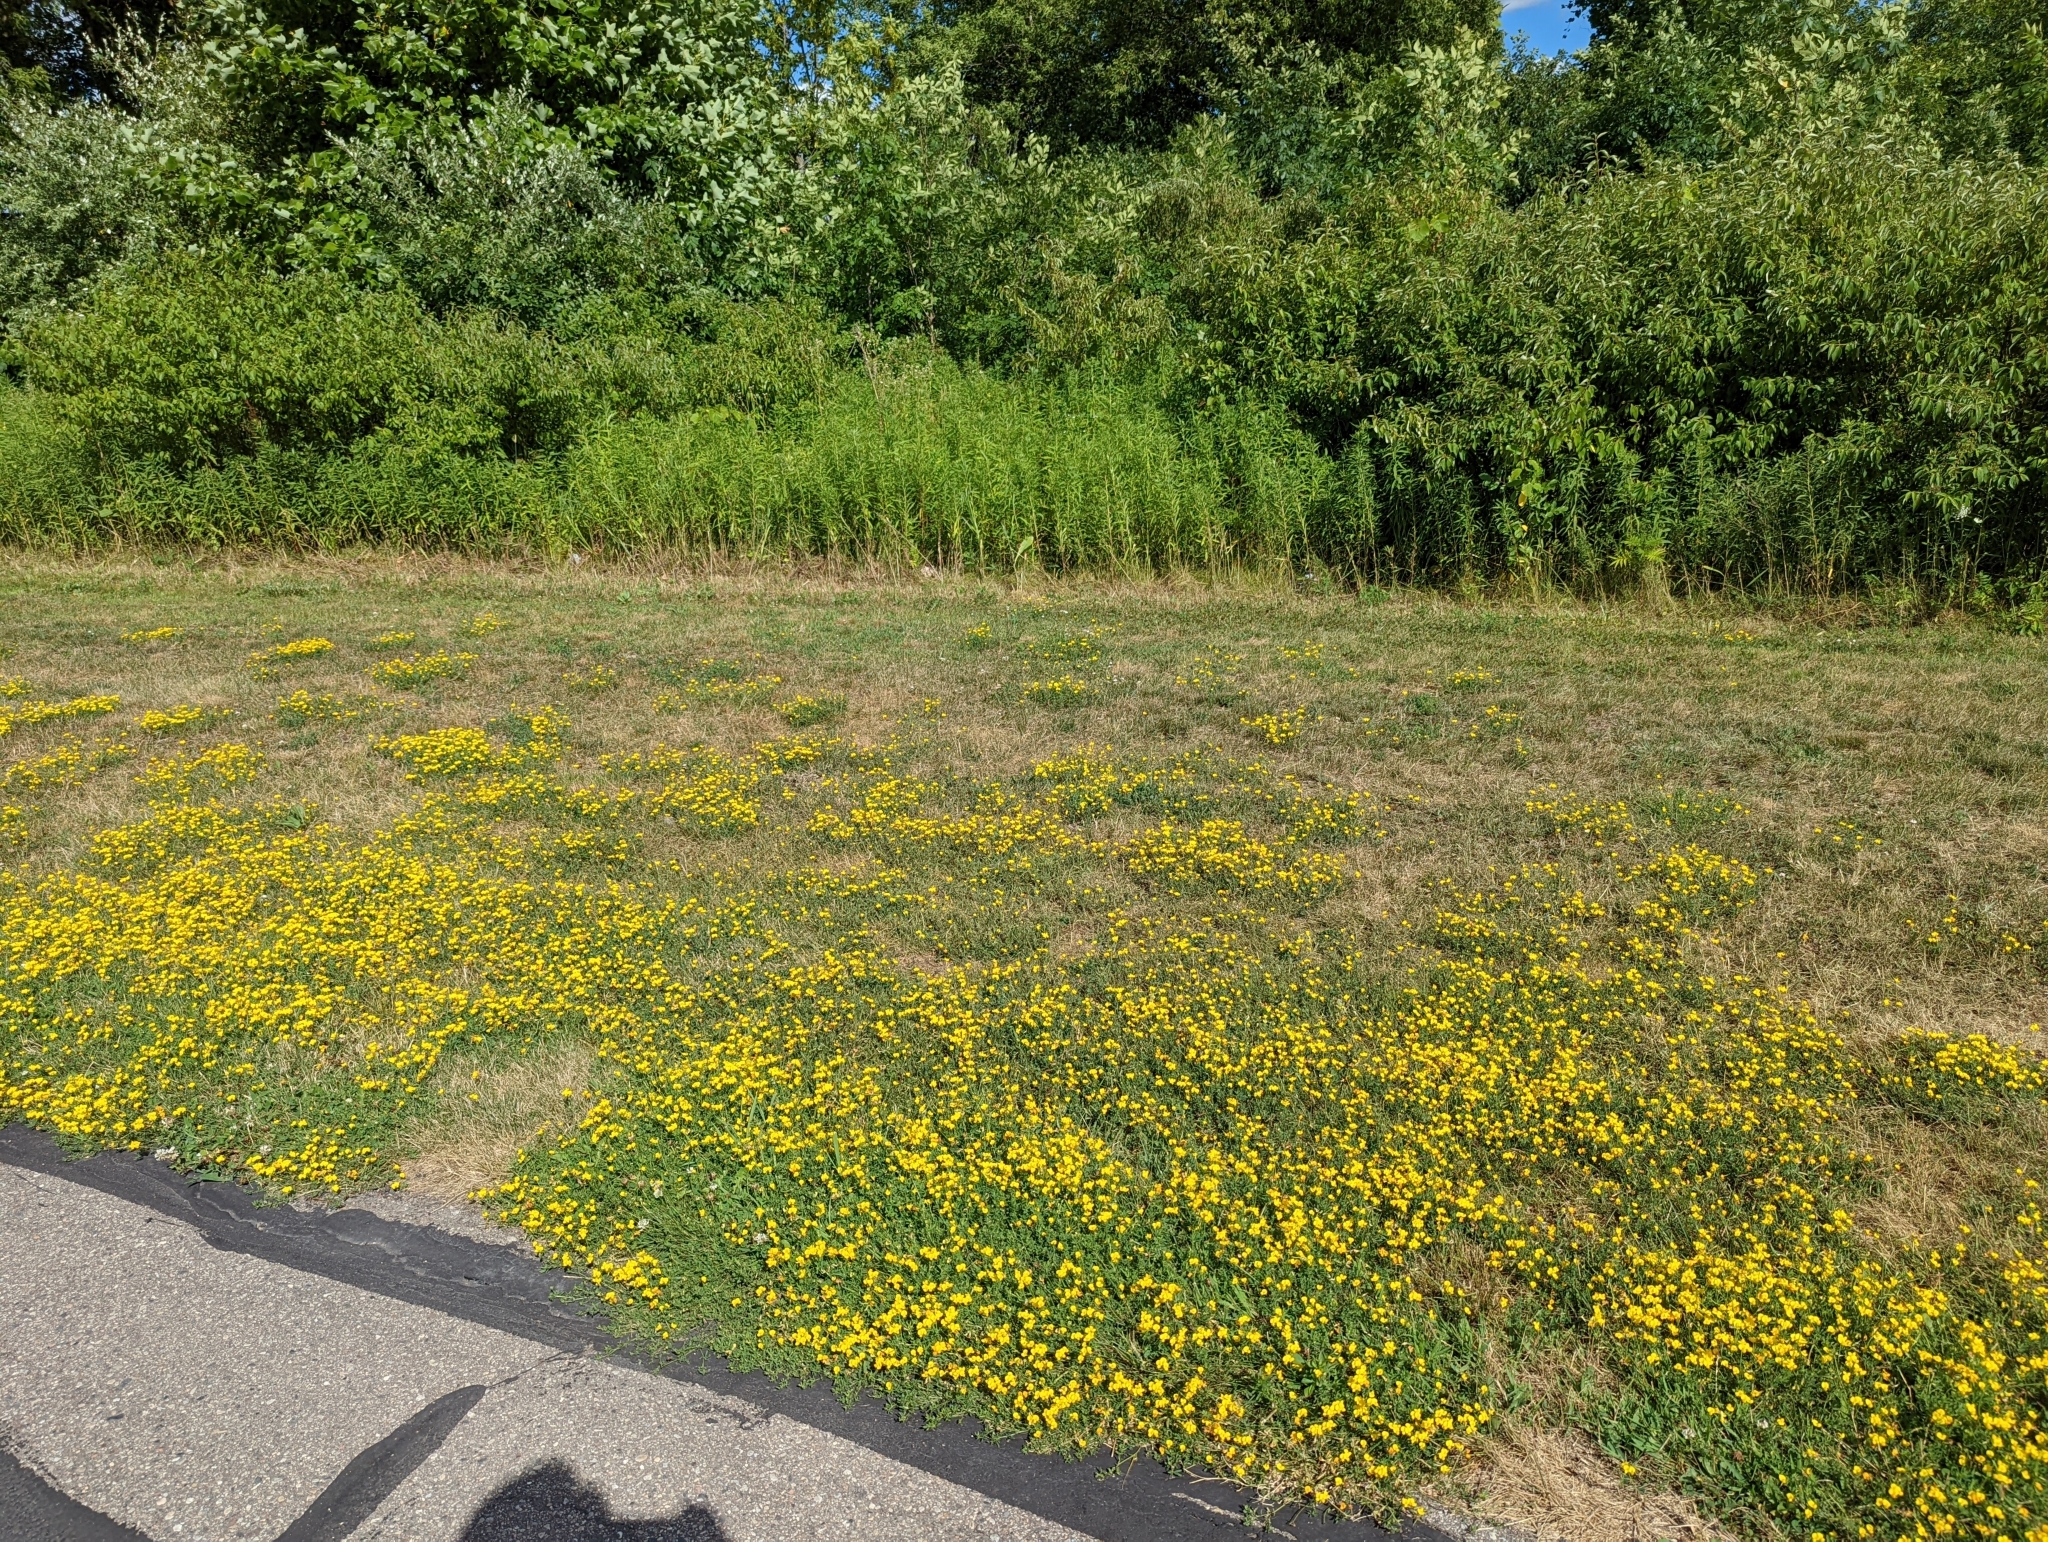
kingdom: Plantae
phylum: Tracheophyta
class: Magnoliopsida
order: Fabales
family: Fabaceae
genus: Lotus
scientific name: Lotus corniculatus
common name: Common bird's-foot-trefoil
